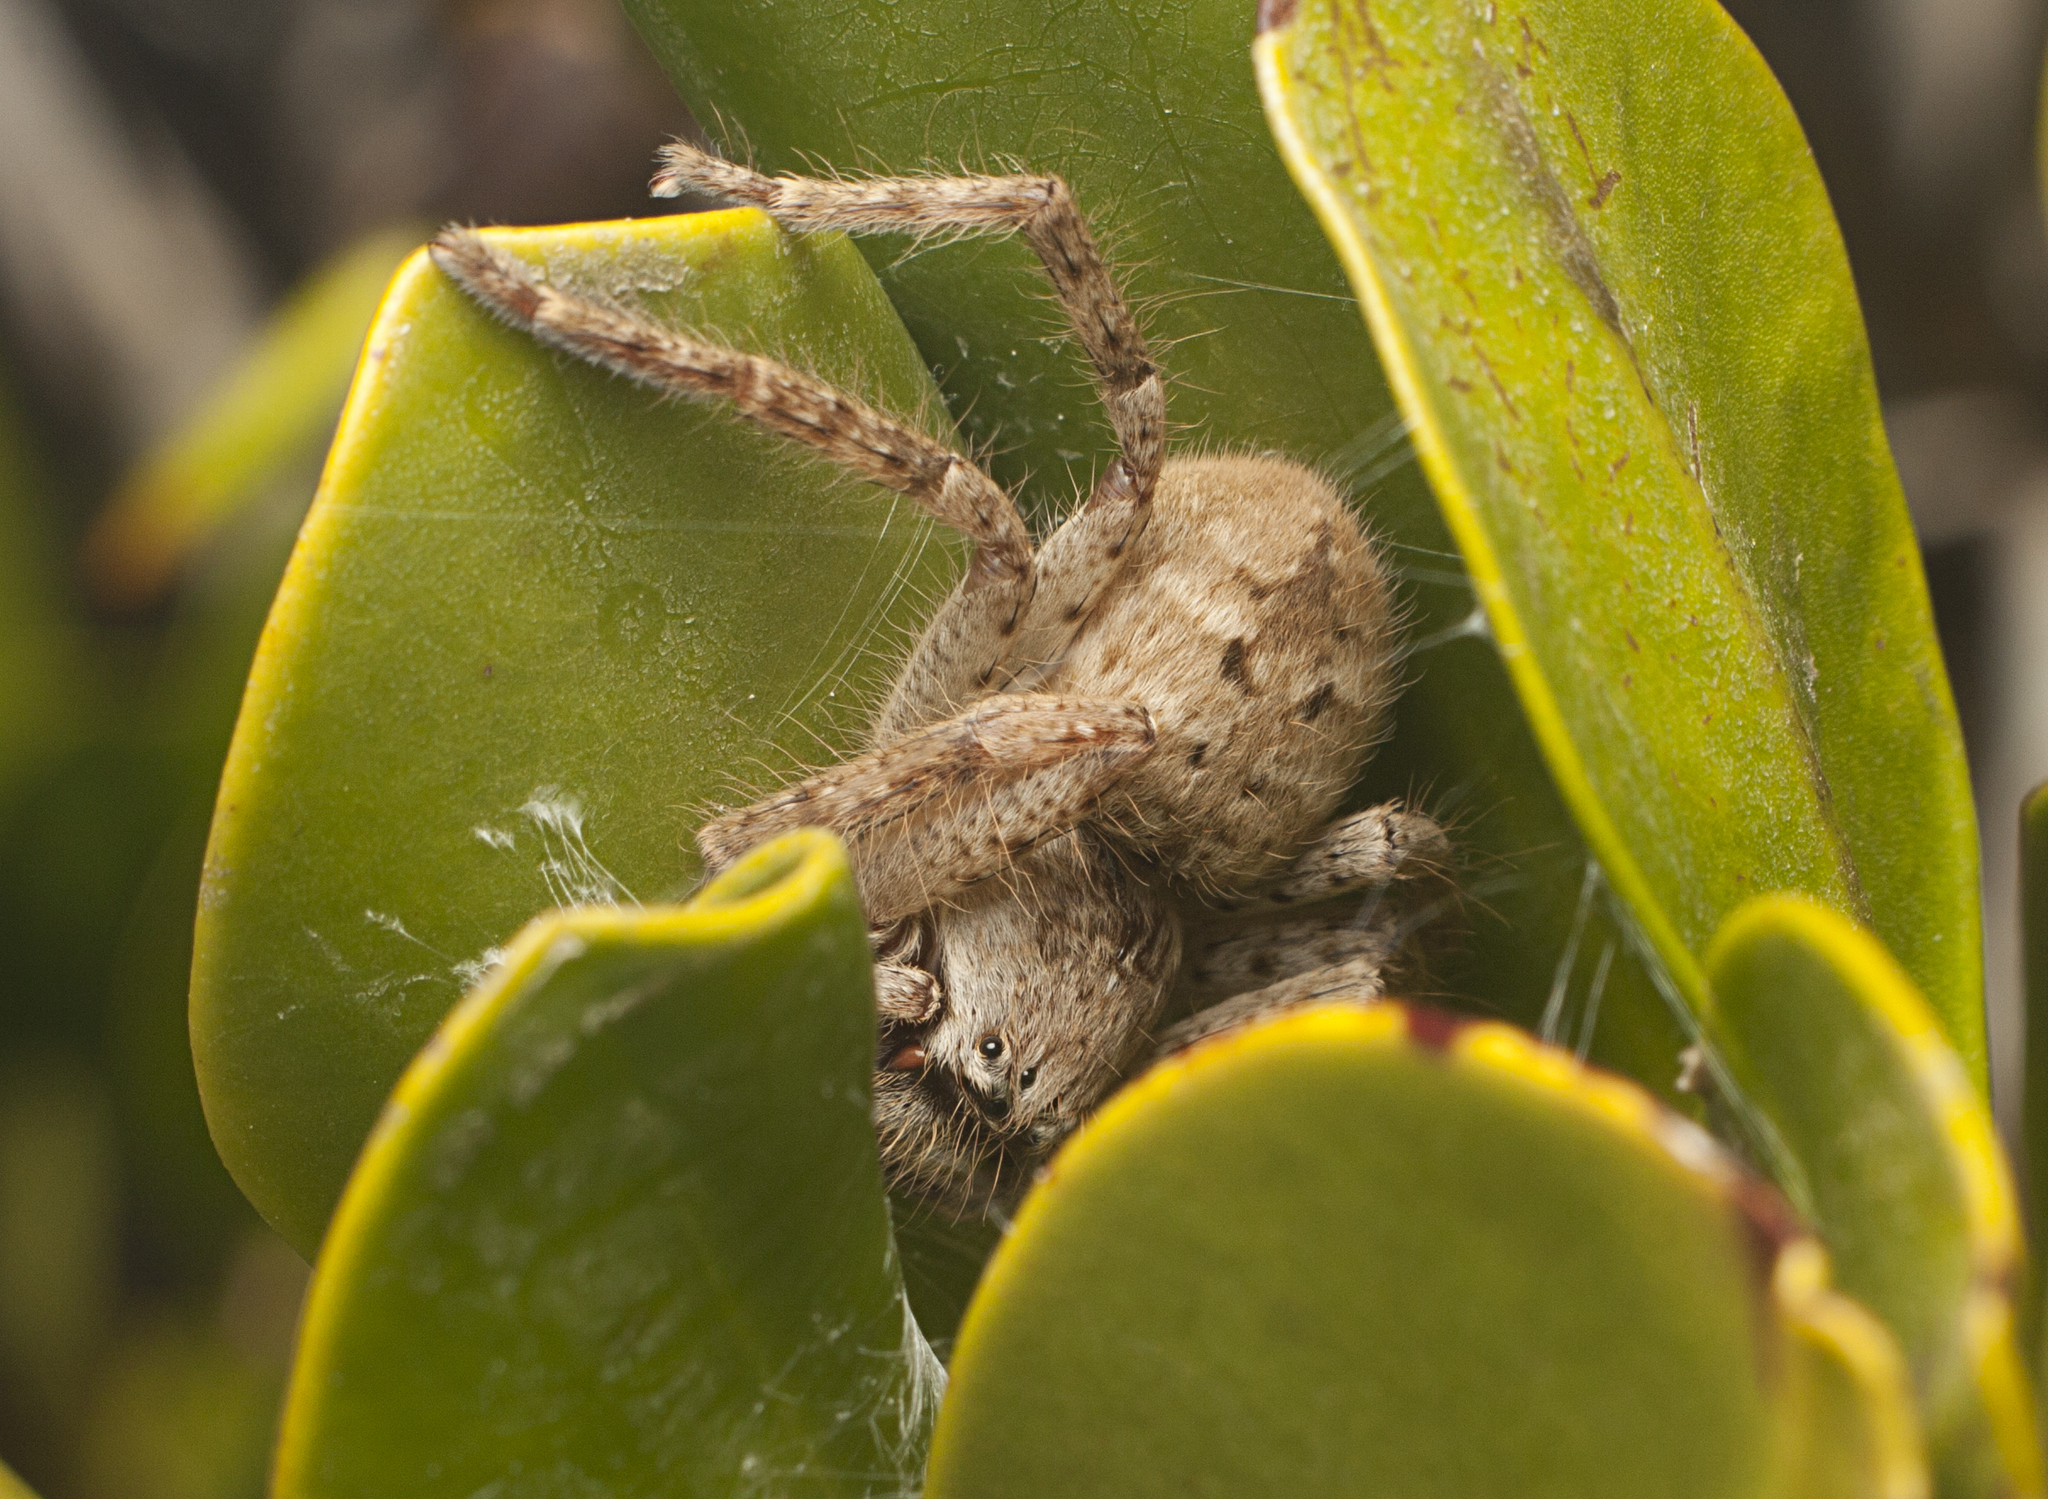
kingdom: Animalia
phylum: Arthropoda
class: Arachnida
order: Araneae
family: Sparassidae
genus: Isopedella
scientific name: Isopedella flavida
